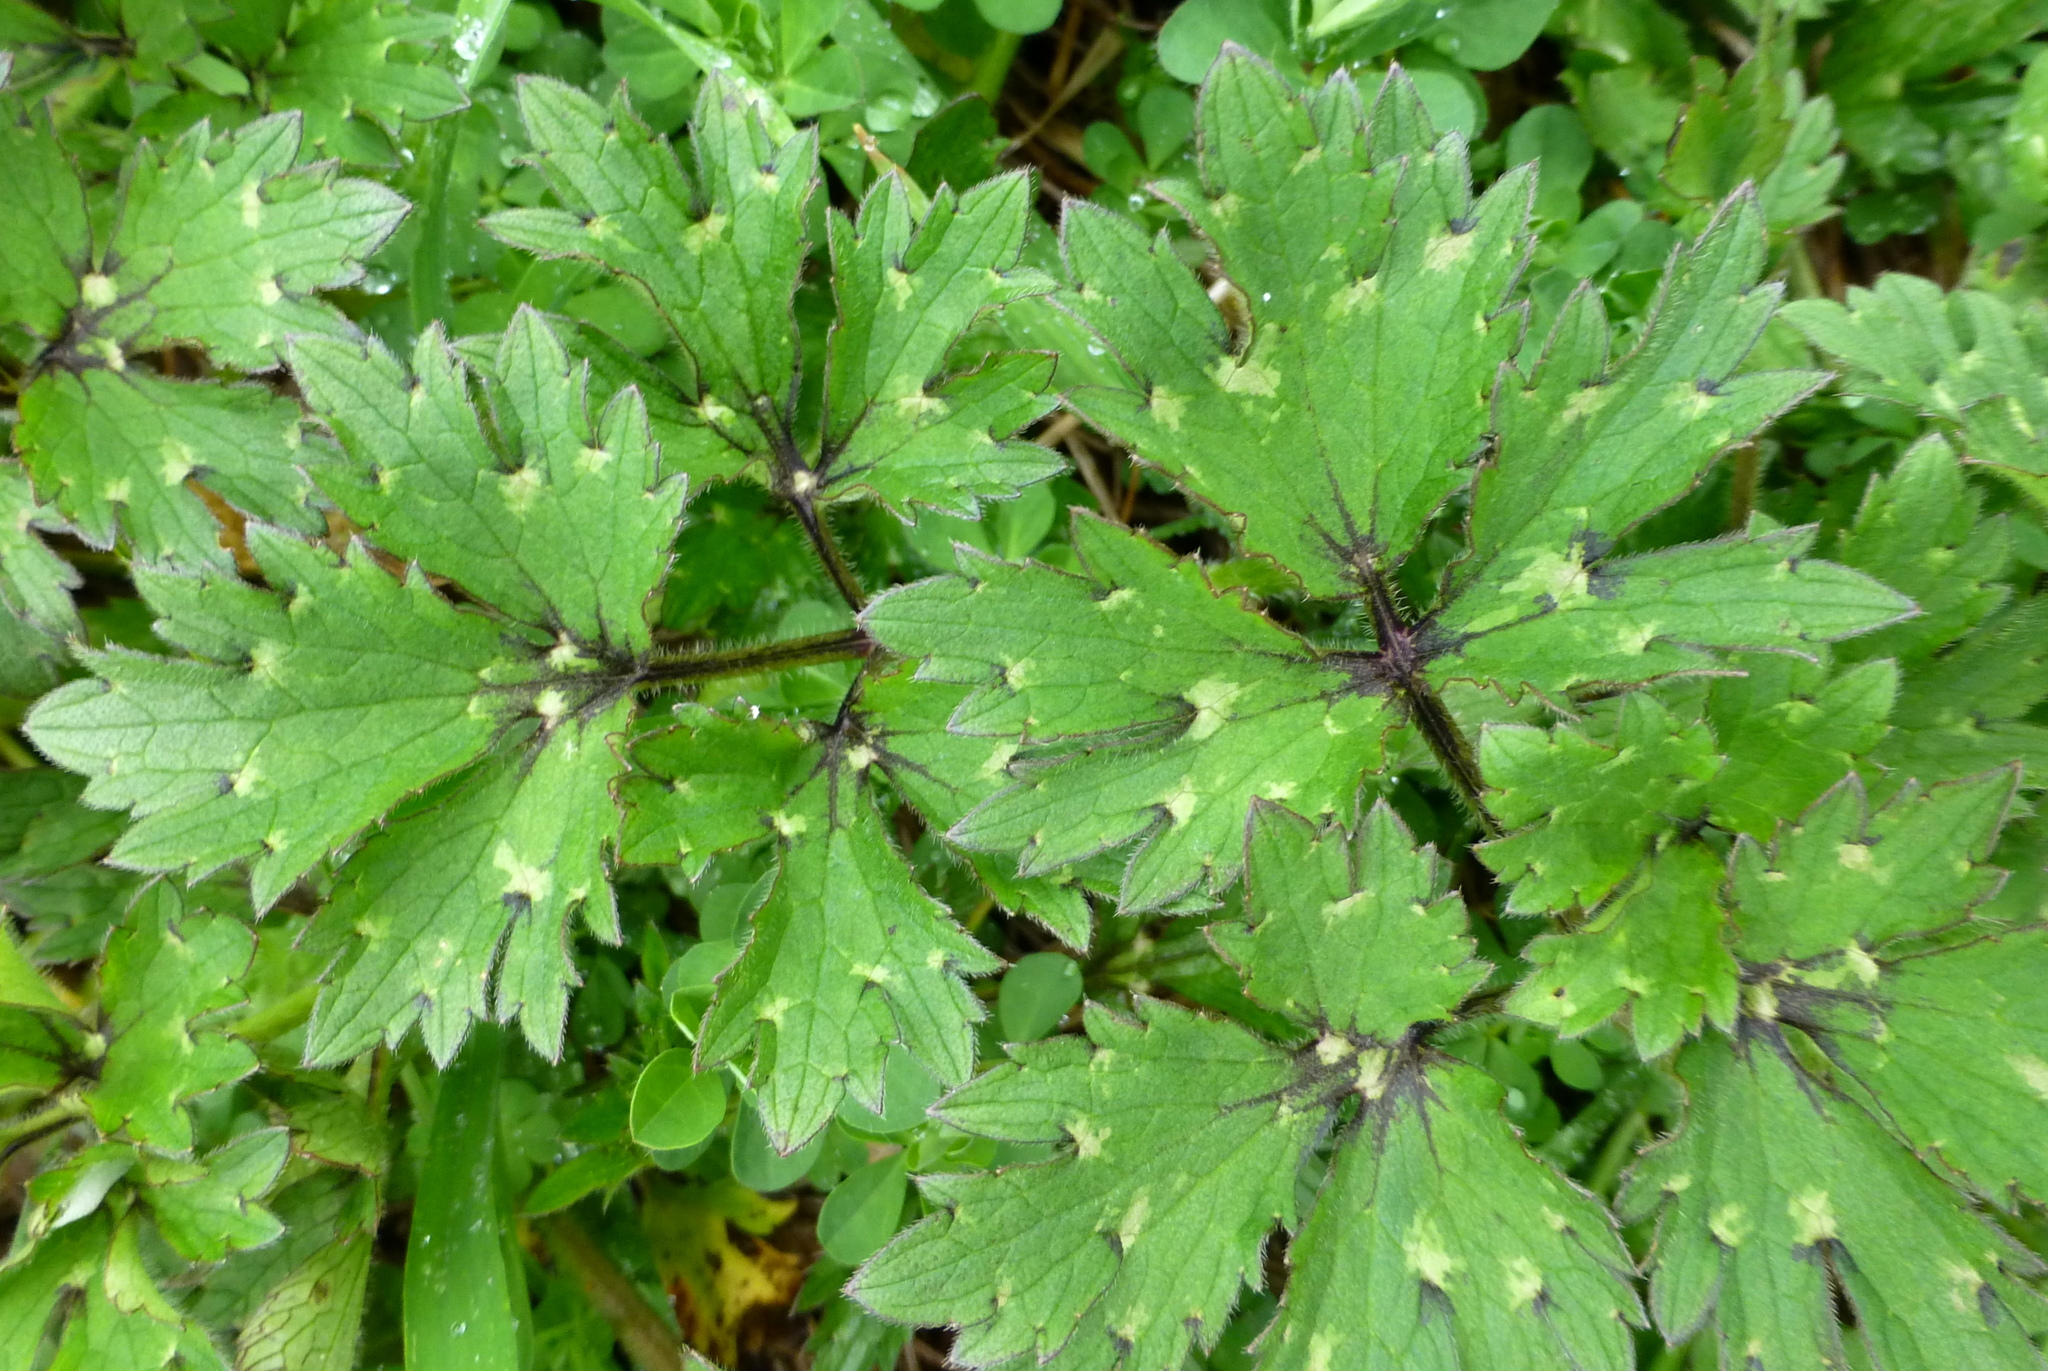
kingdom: Plantae
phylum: Tracheophyta
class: Magnoliopsida
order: Ranunculales
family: Ranunculaceae
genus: Ranunculus
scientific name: Ranunculus repens
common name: Creeping buttercup
